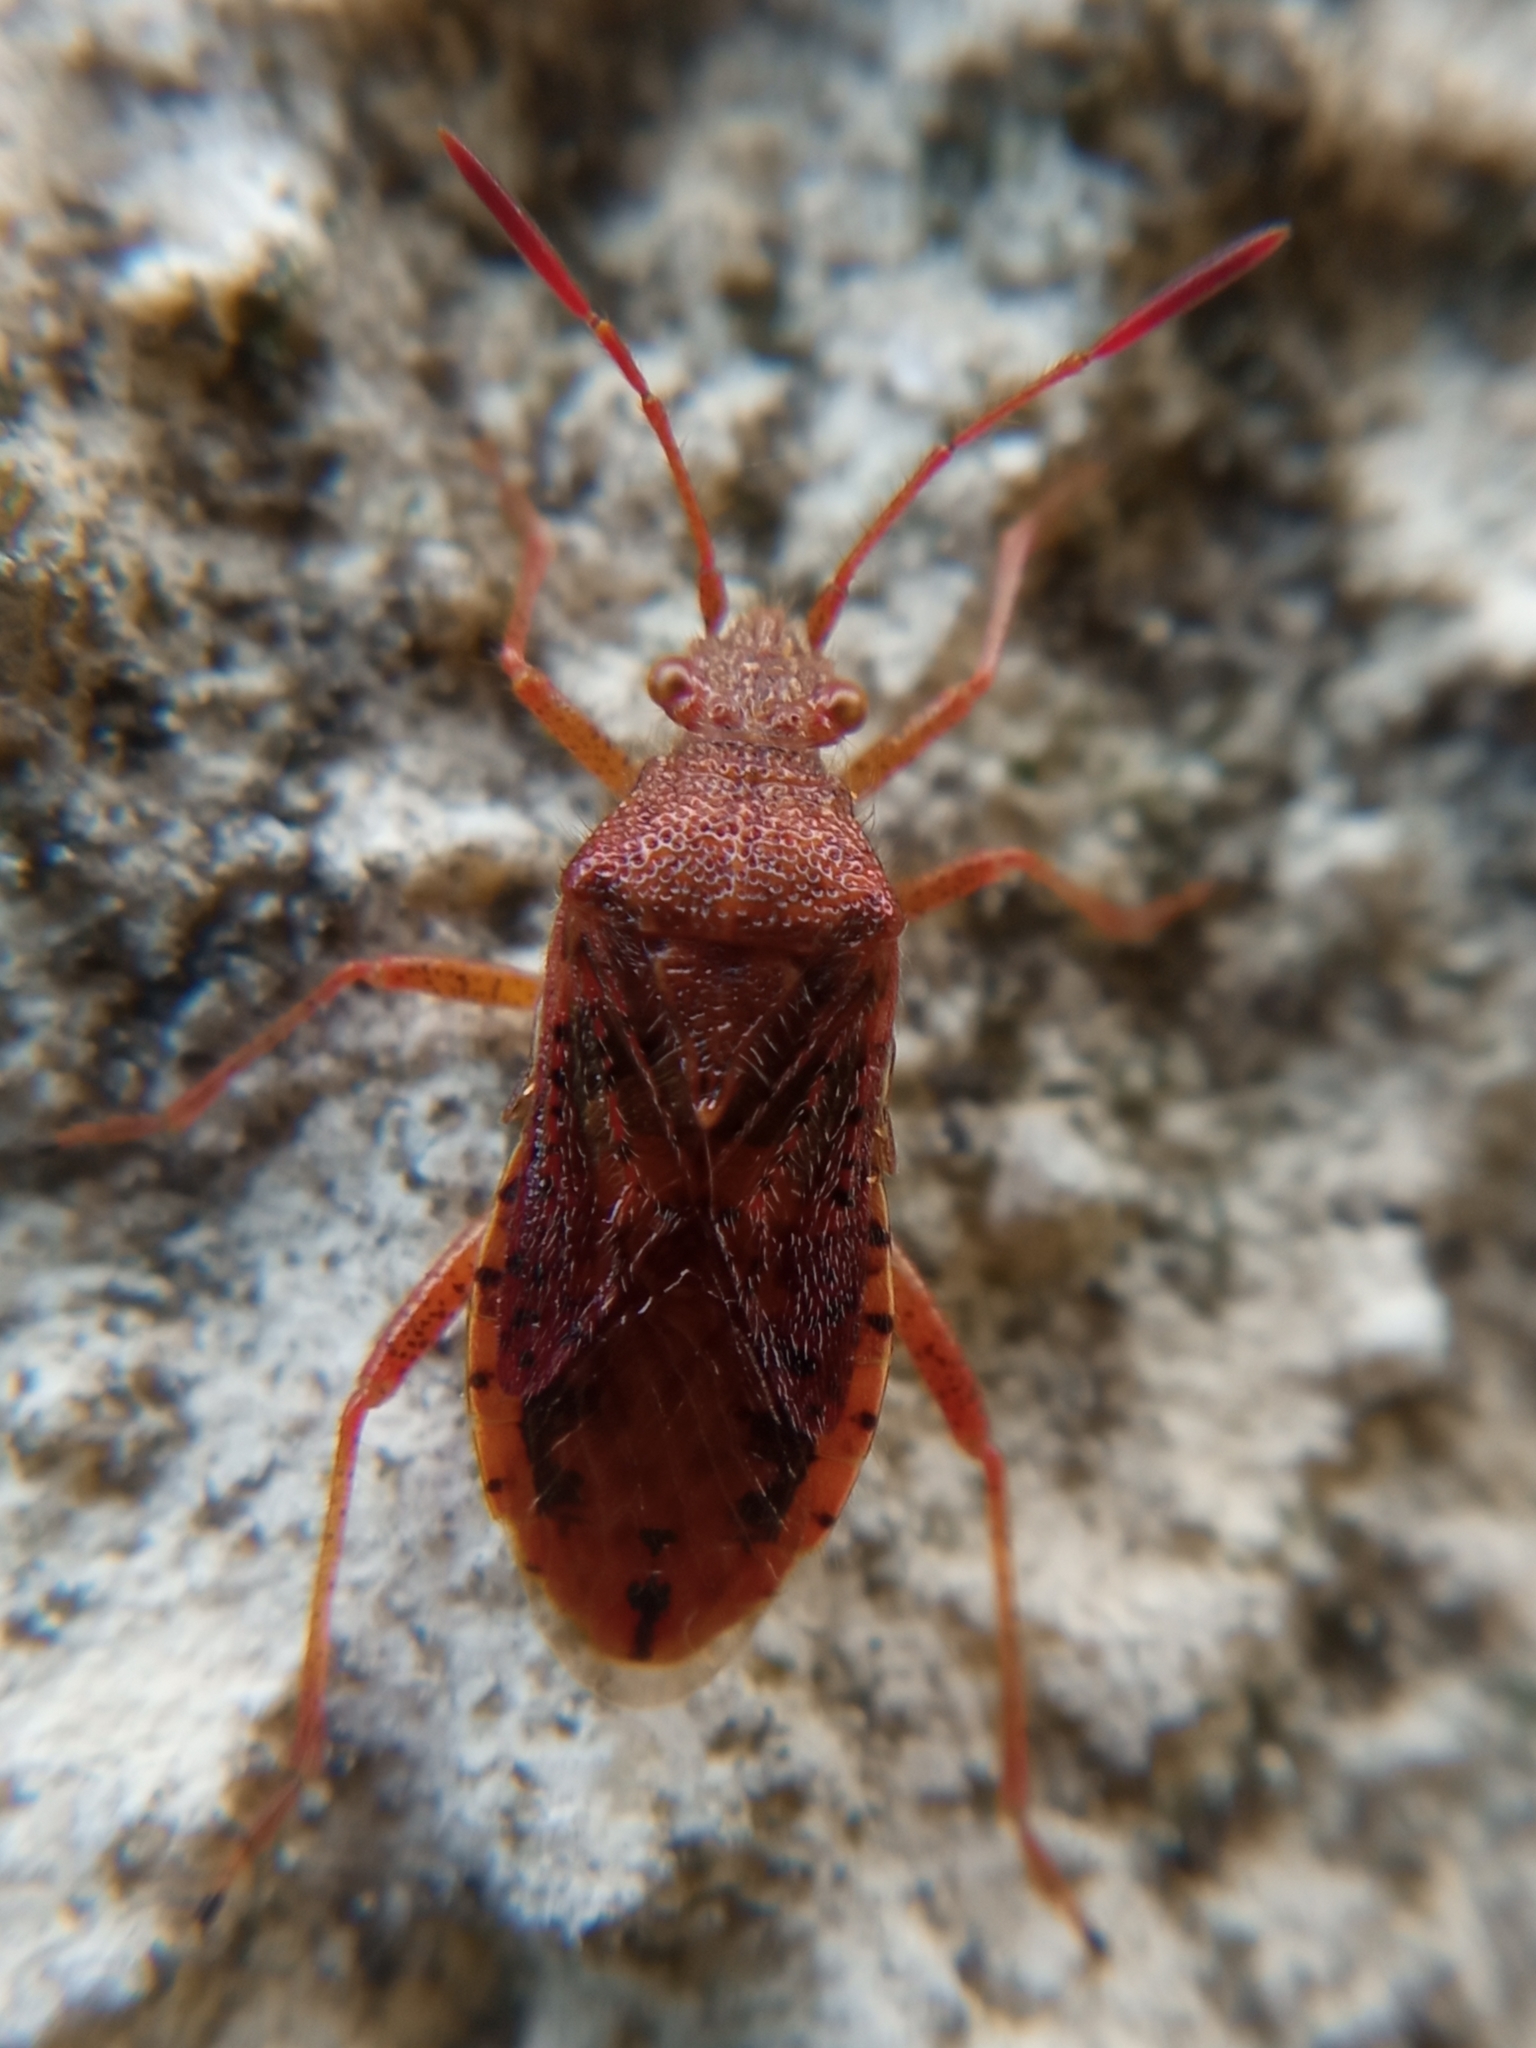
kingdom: Animalia
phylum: Arthropoda
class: Insecta
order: Hemiptera
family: Rhopalidae
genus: Rhopalus
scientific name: Rhopalus maculatus
